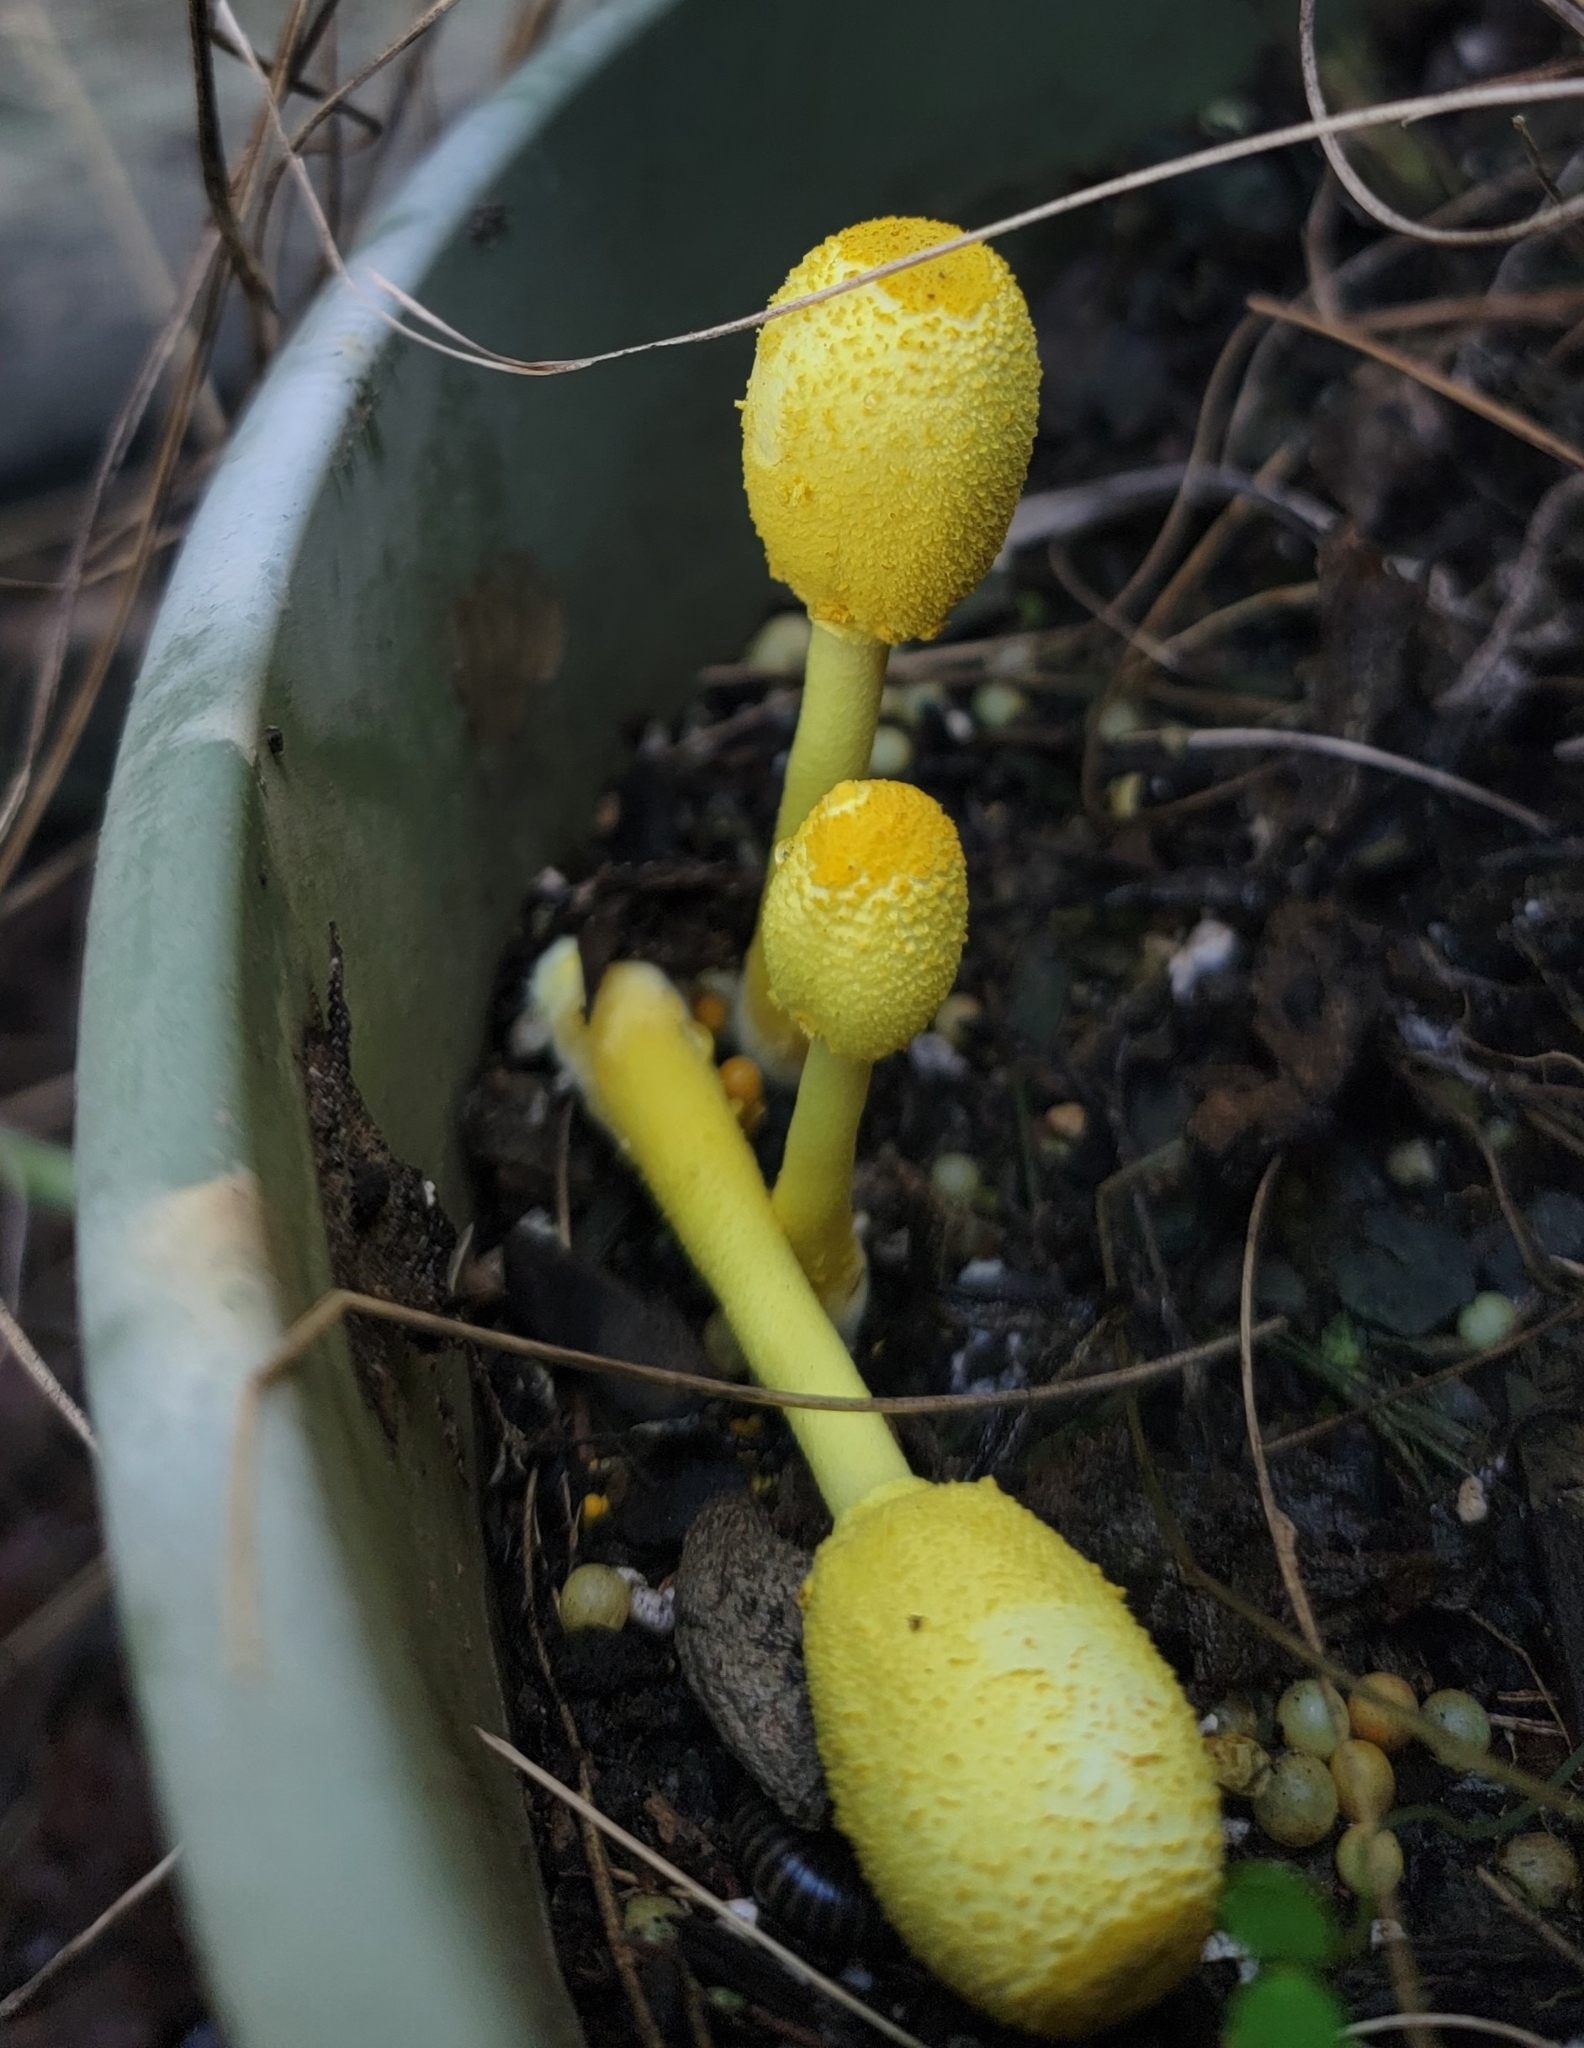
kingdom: Fungi
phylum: Basidiomycota
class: Agaricomycetes
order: Agaricales
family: Agaricaceae
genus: Leucocoprinus
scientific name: Leucocoprinus birnbaumii
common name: Plantpot dapperling
